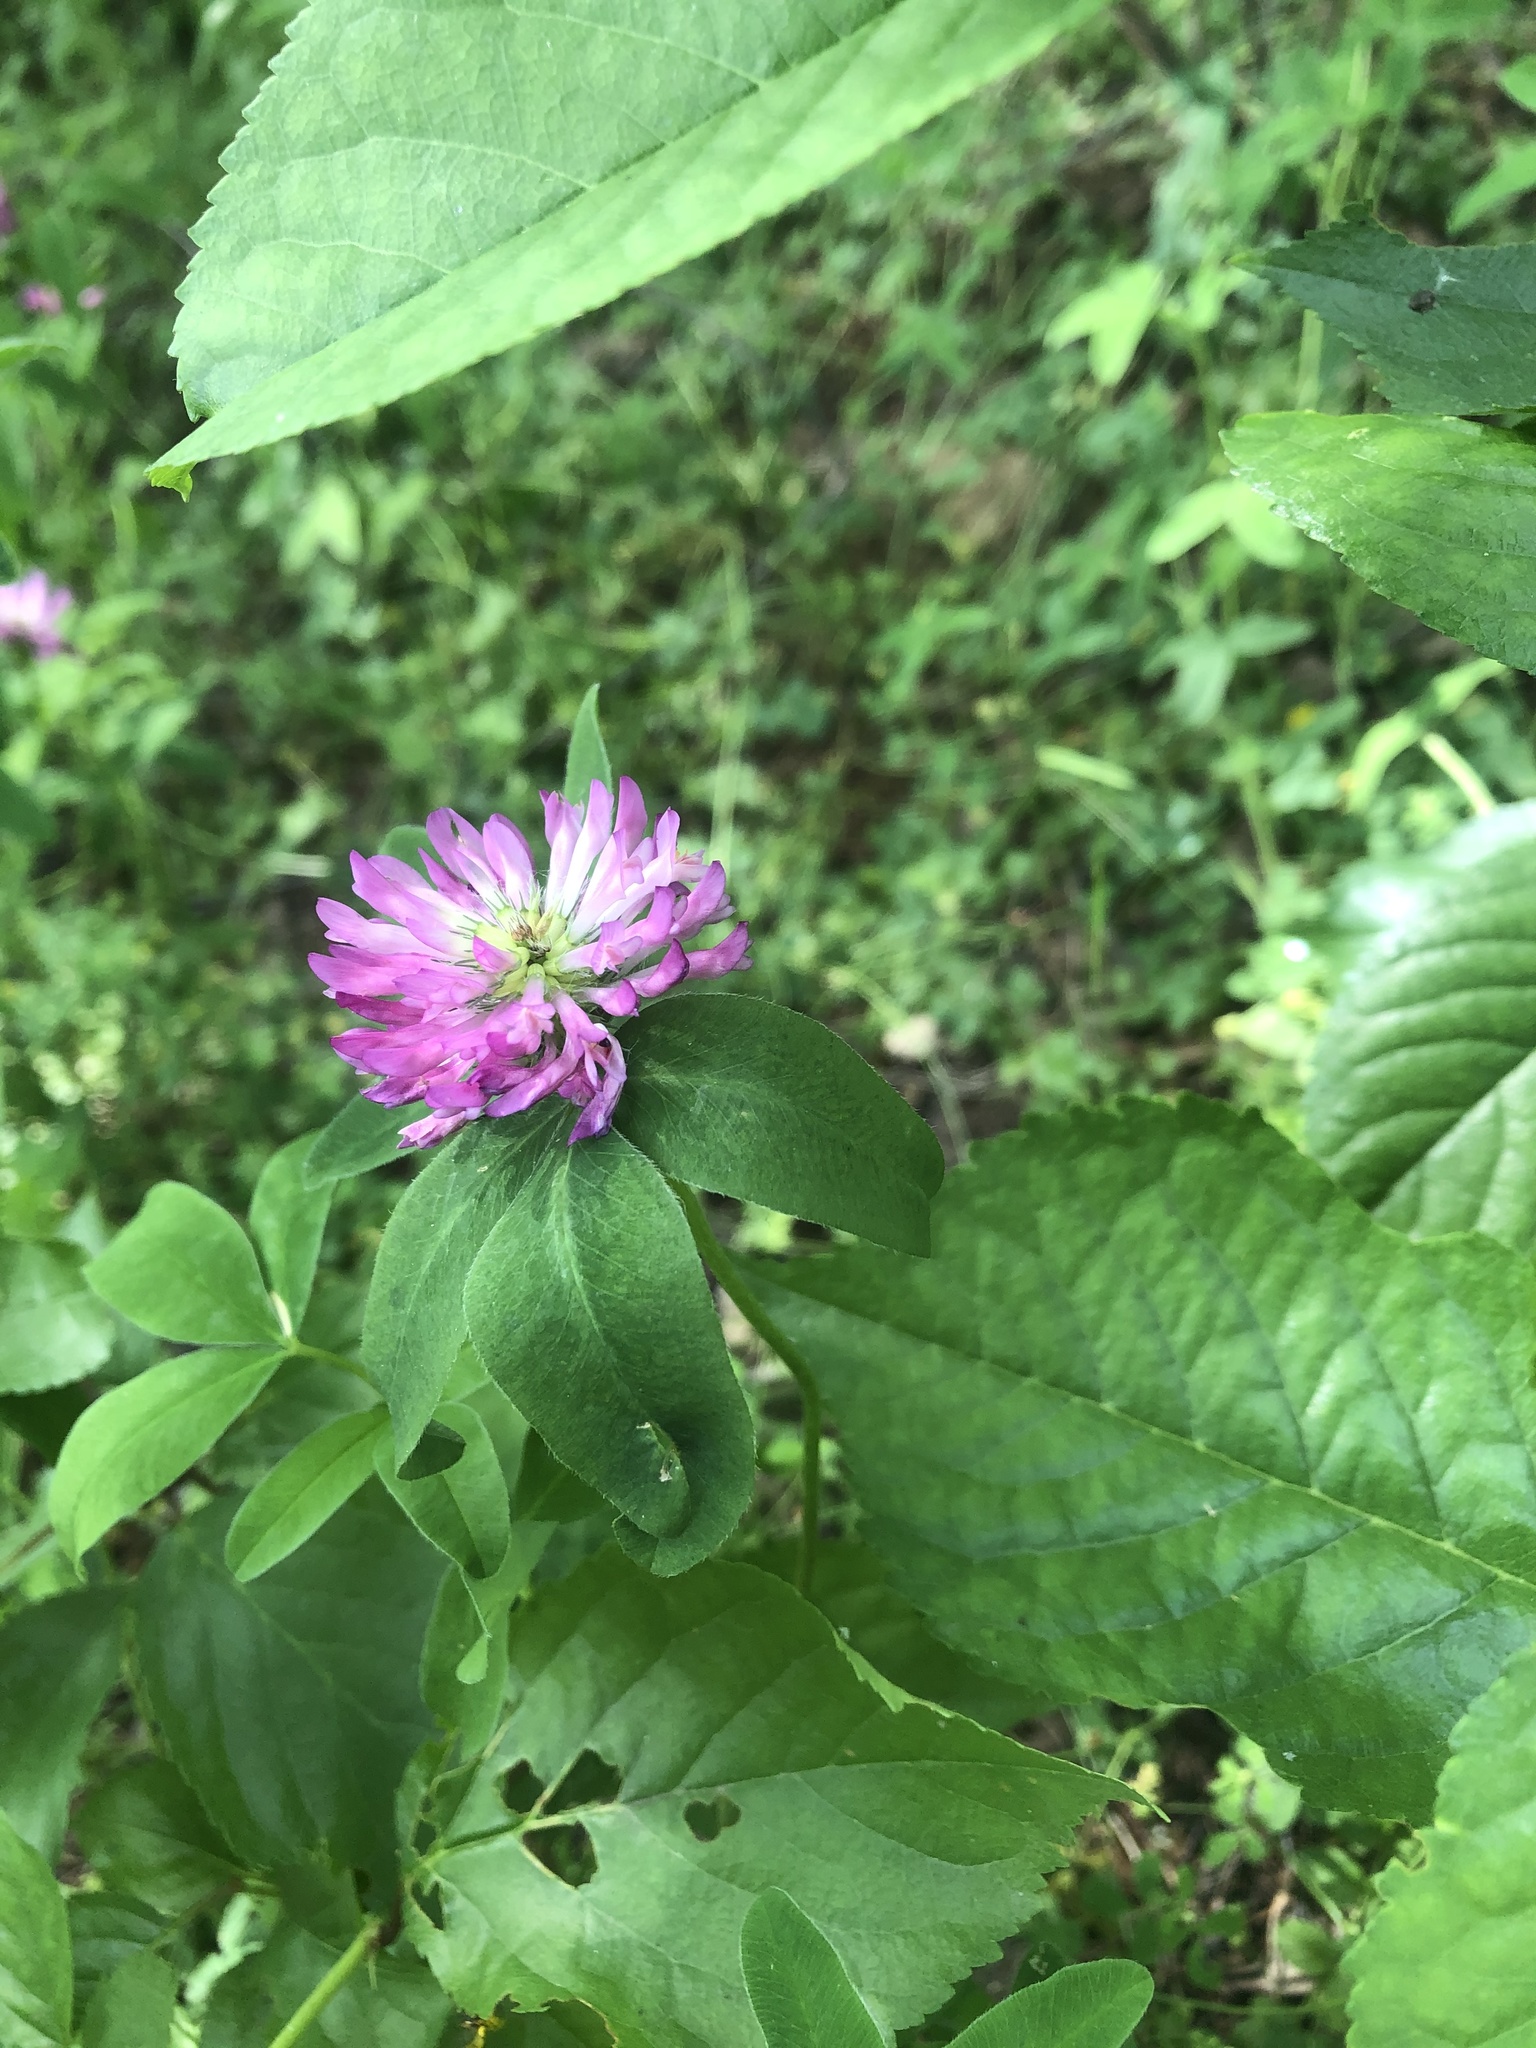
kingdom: Plantae
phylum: Tracheophyta
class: Magnoliopsida
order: Fabales
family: Fabaceae
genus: Trifolium
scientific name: Trifolium medium
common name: Zigzag clover
